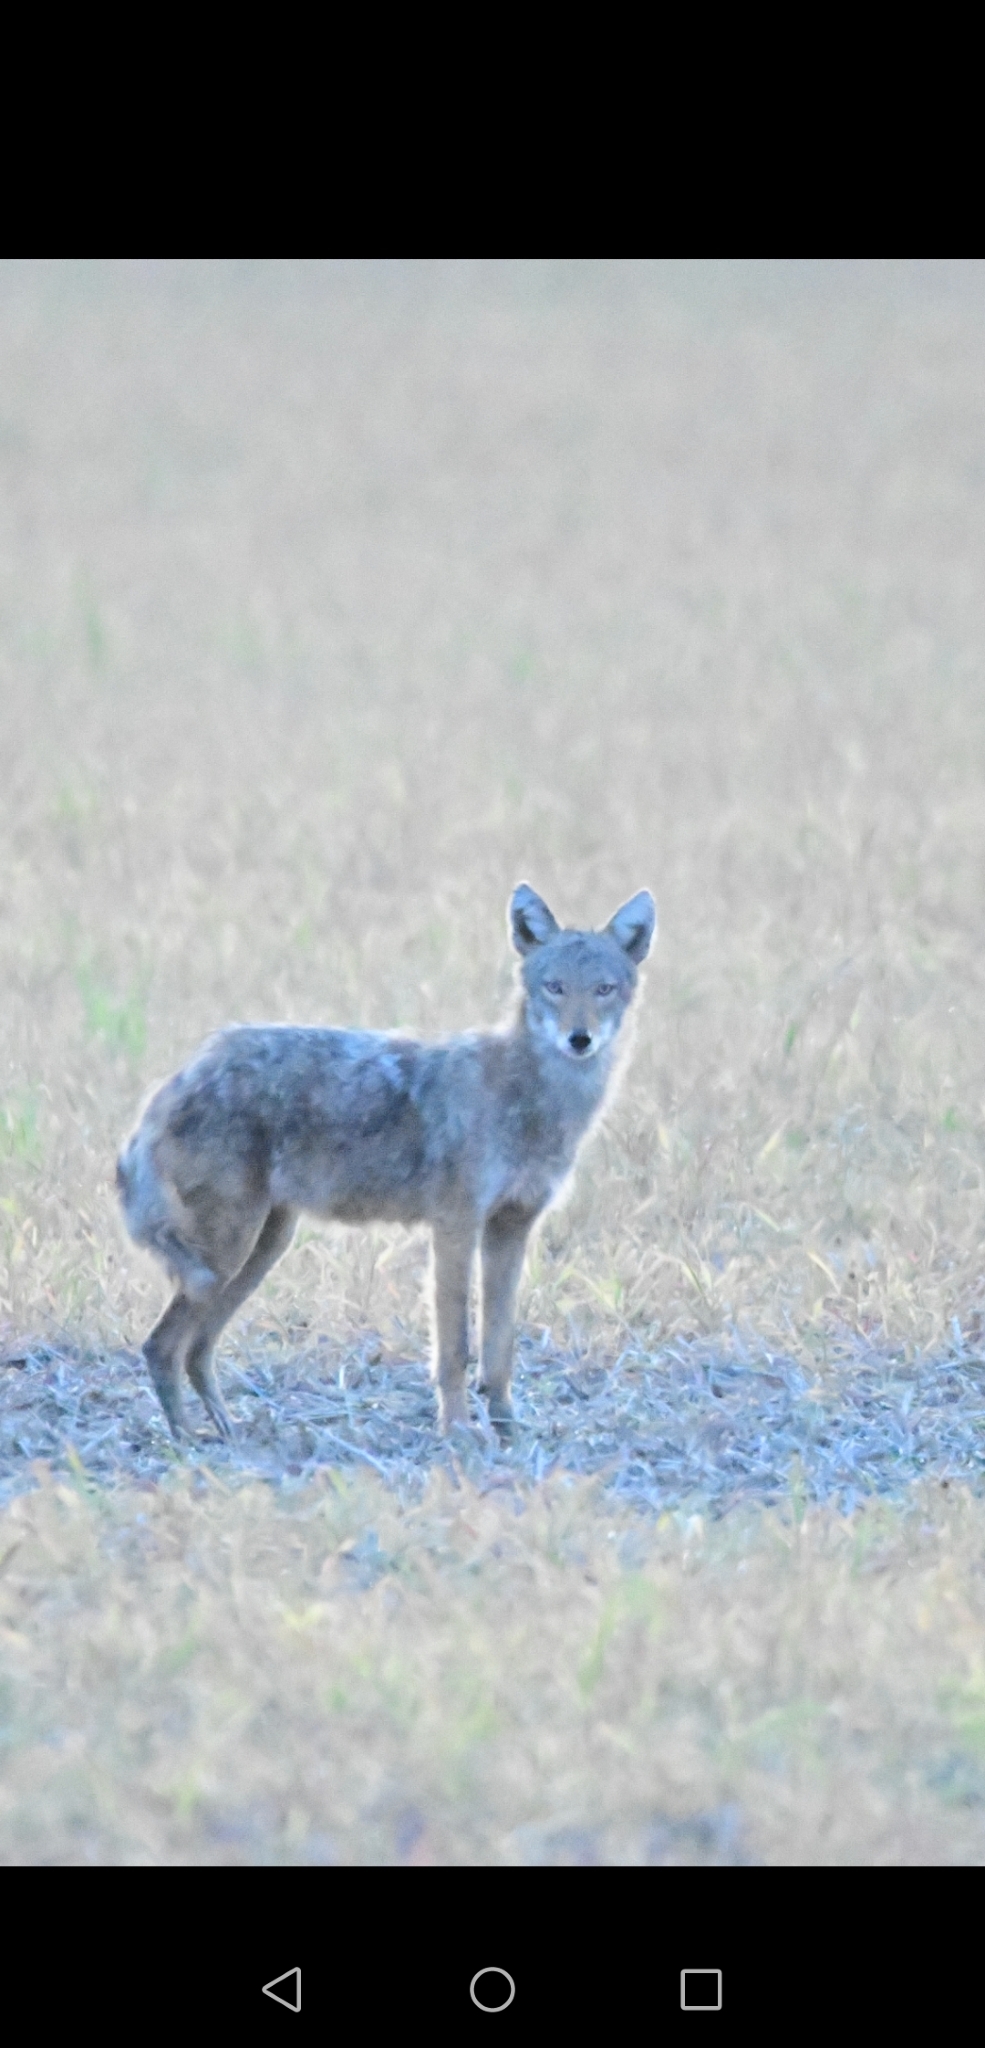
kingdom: Animalia
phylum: Chordata
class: Mammalia
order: Carnivora
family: Canidae
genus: Canis
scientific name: Canis latrans
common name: Coyote
